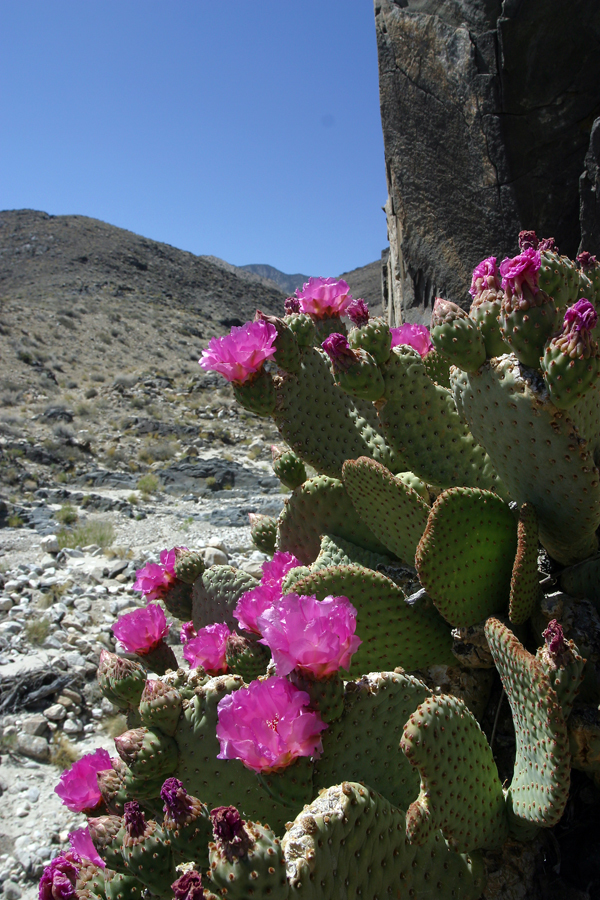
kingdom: Plantae
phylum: Tracheophyta
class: Magnoliopsida
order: Caryophyllales
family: Cactaceae
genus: Opuntia
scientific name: Opuntia basilaris
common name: Beavertail prickly-pear
